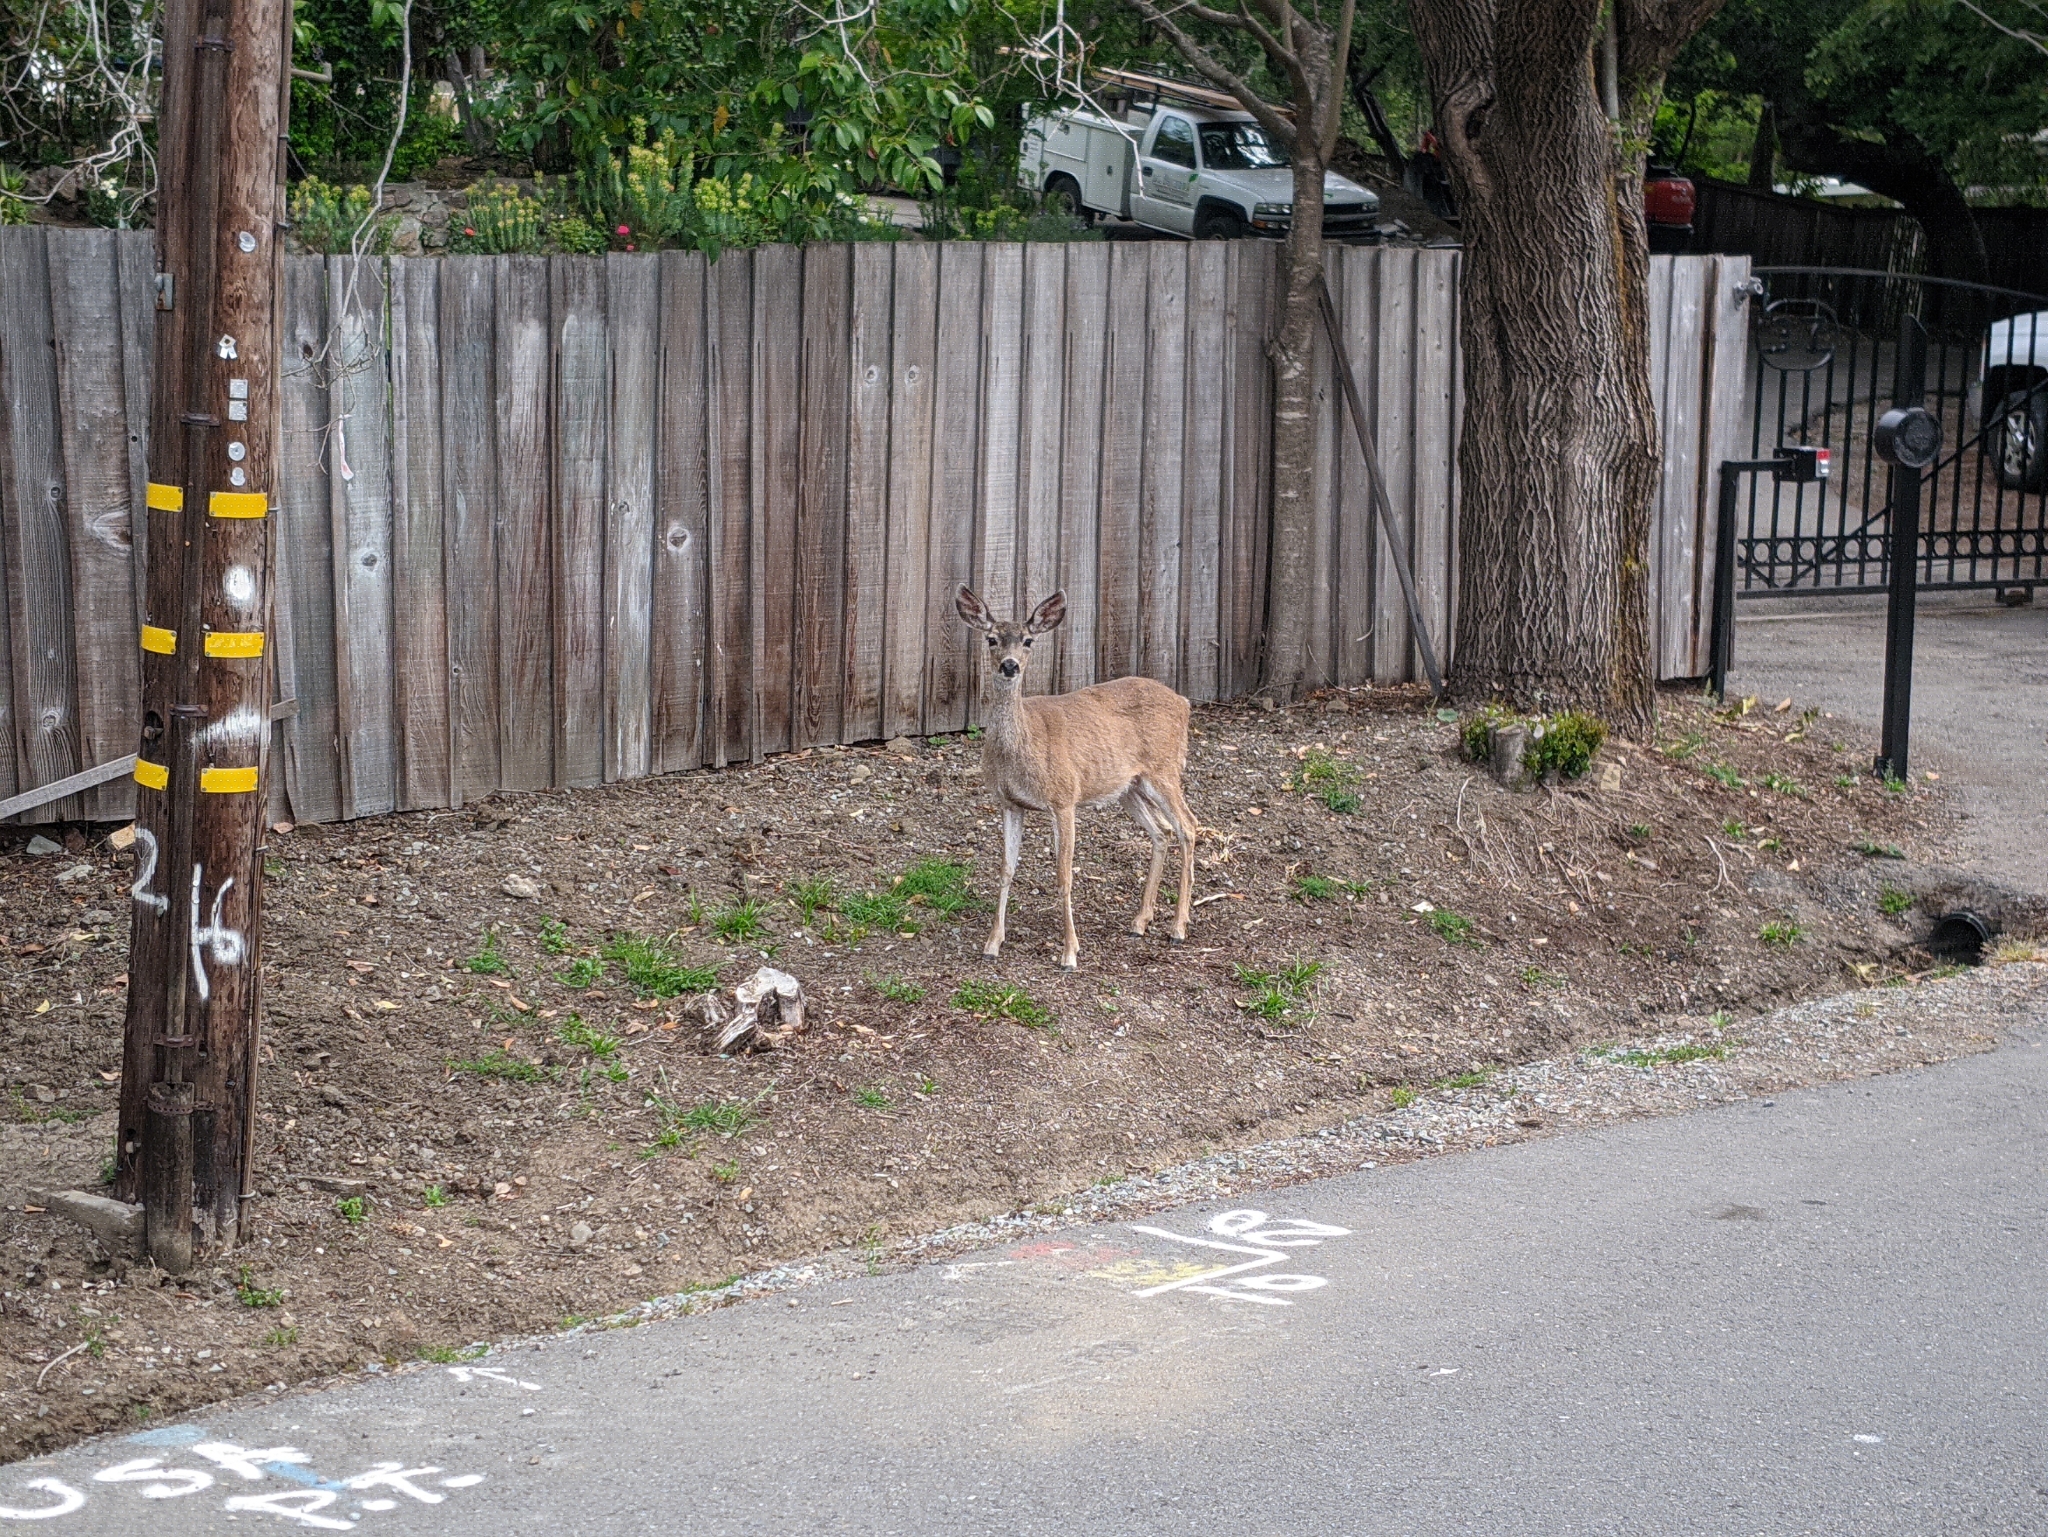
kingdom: Animalia
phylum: Chordata
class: Mammalia
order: Artiodactyla
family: Cervidae
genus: Odocoileus
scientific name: Odocoileus hemionus
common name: Mule deer
